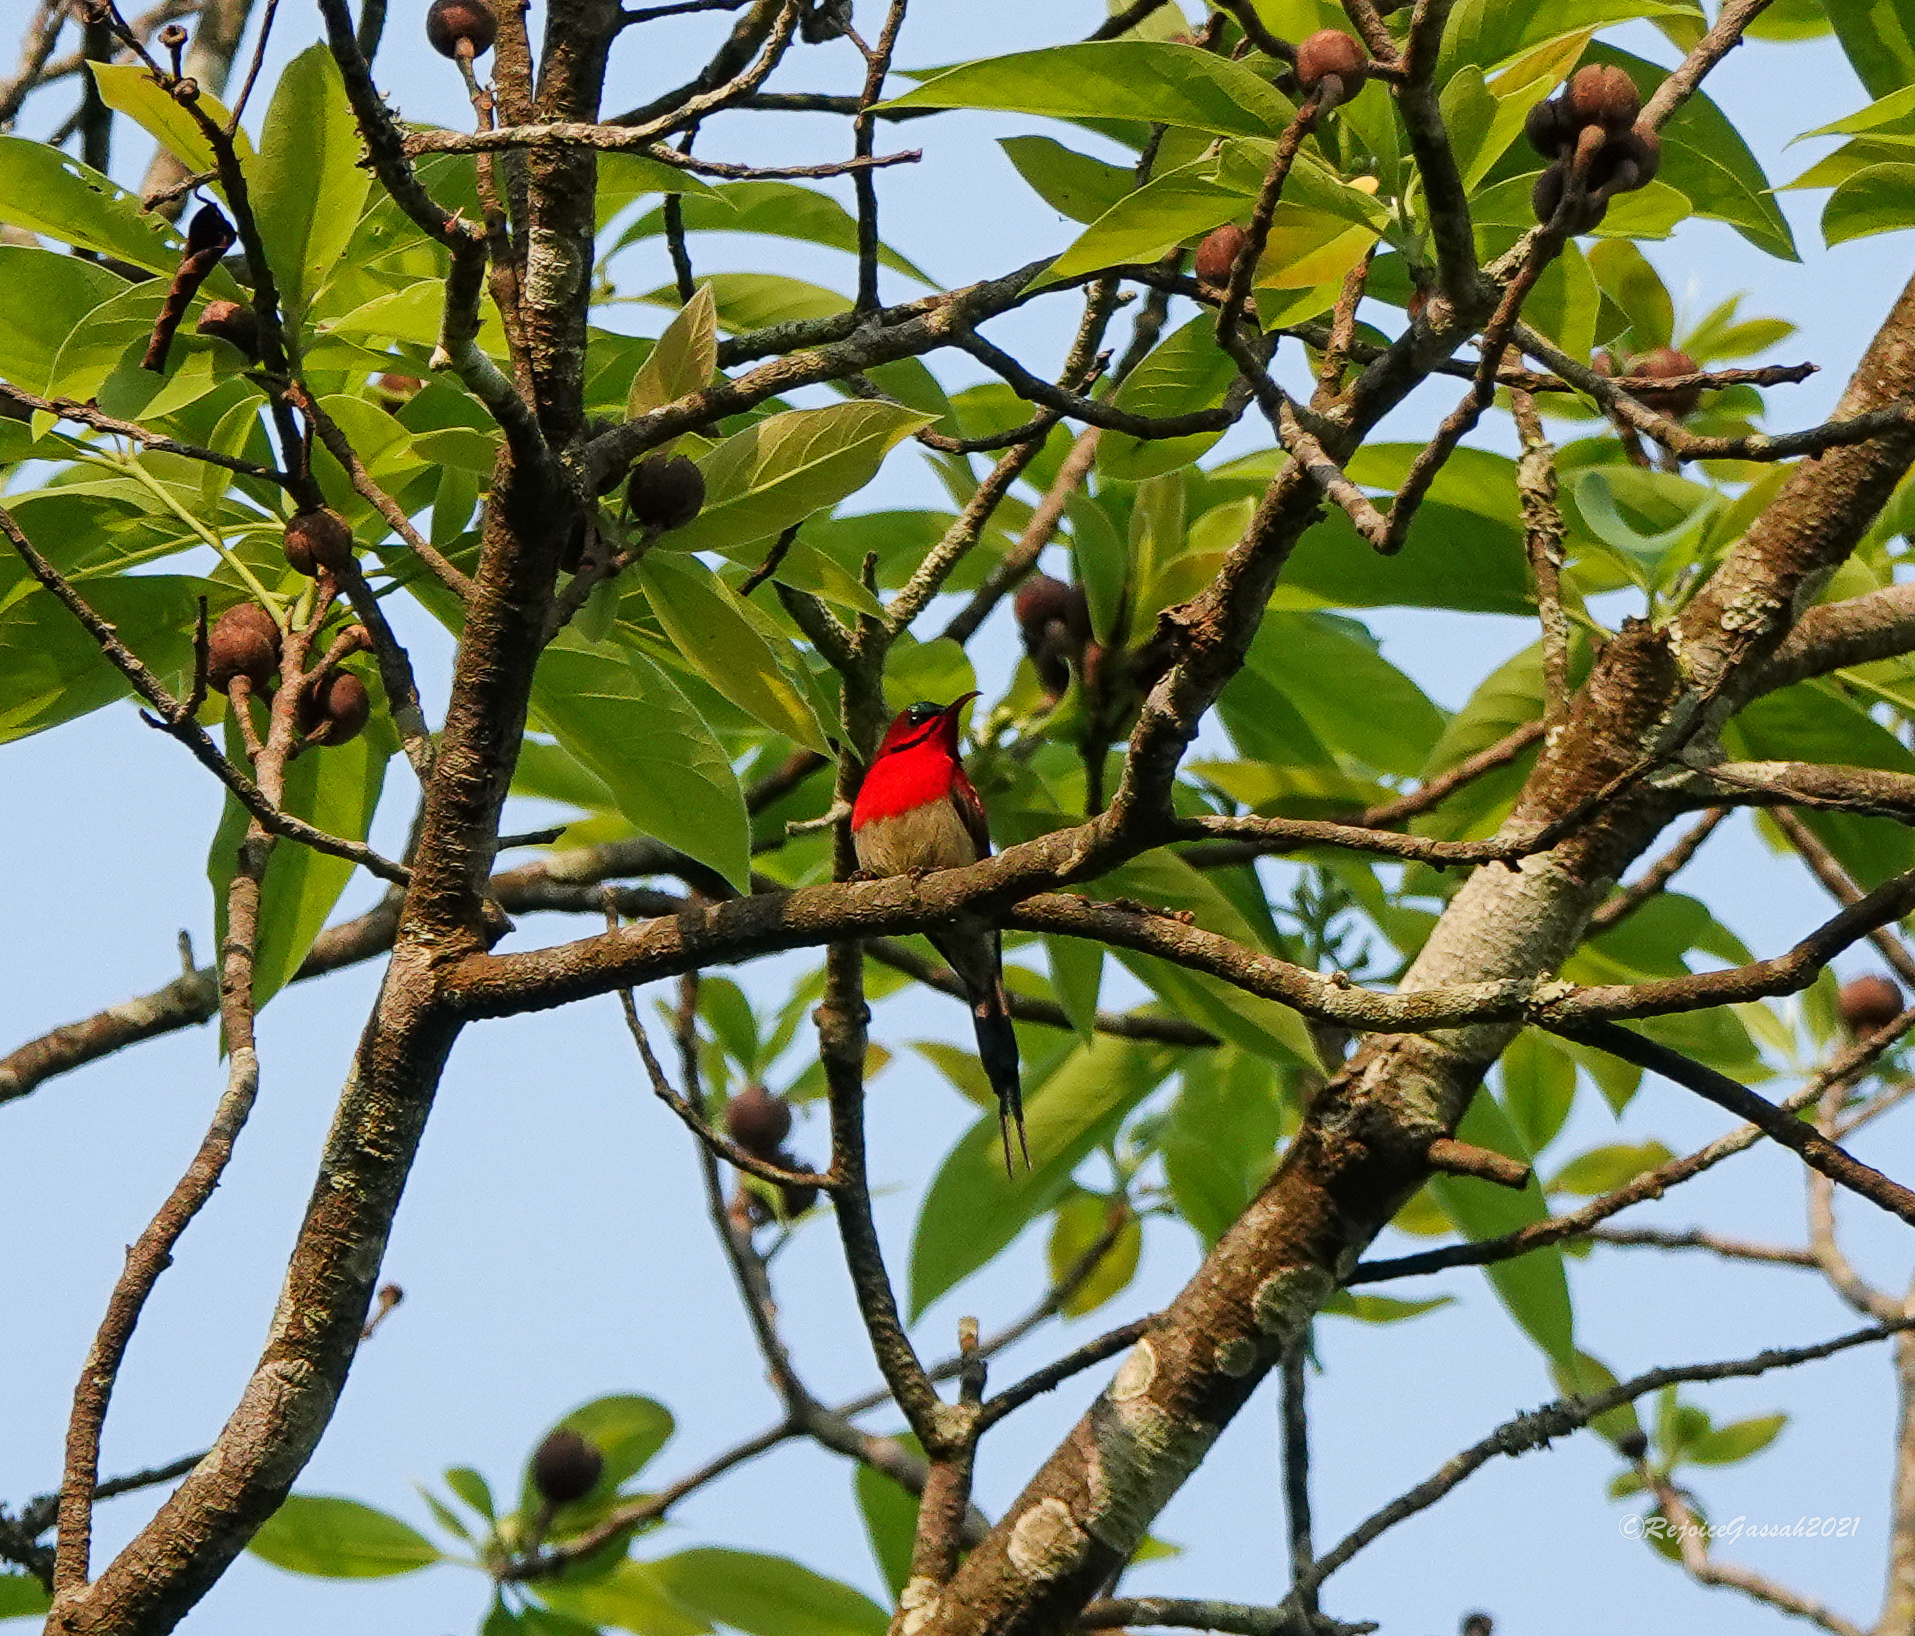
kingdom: Animalia
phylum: Chordata
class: Aves
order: Passeriformes
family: Nectariniidae
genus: Aethopyga
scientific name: Aethopyga siparaja
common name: Crimson sunbird
